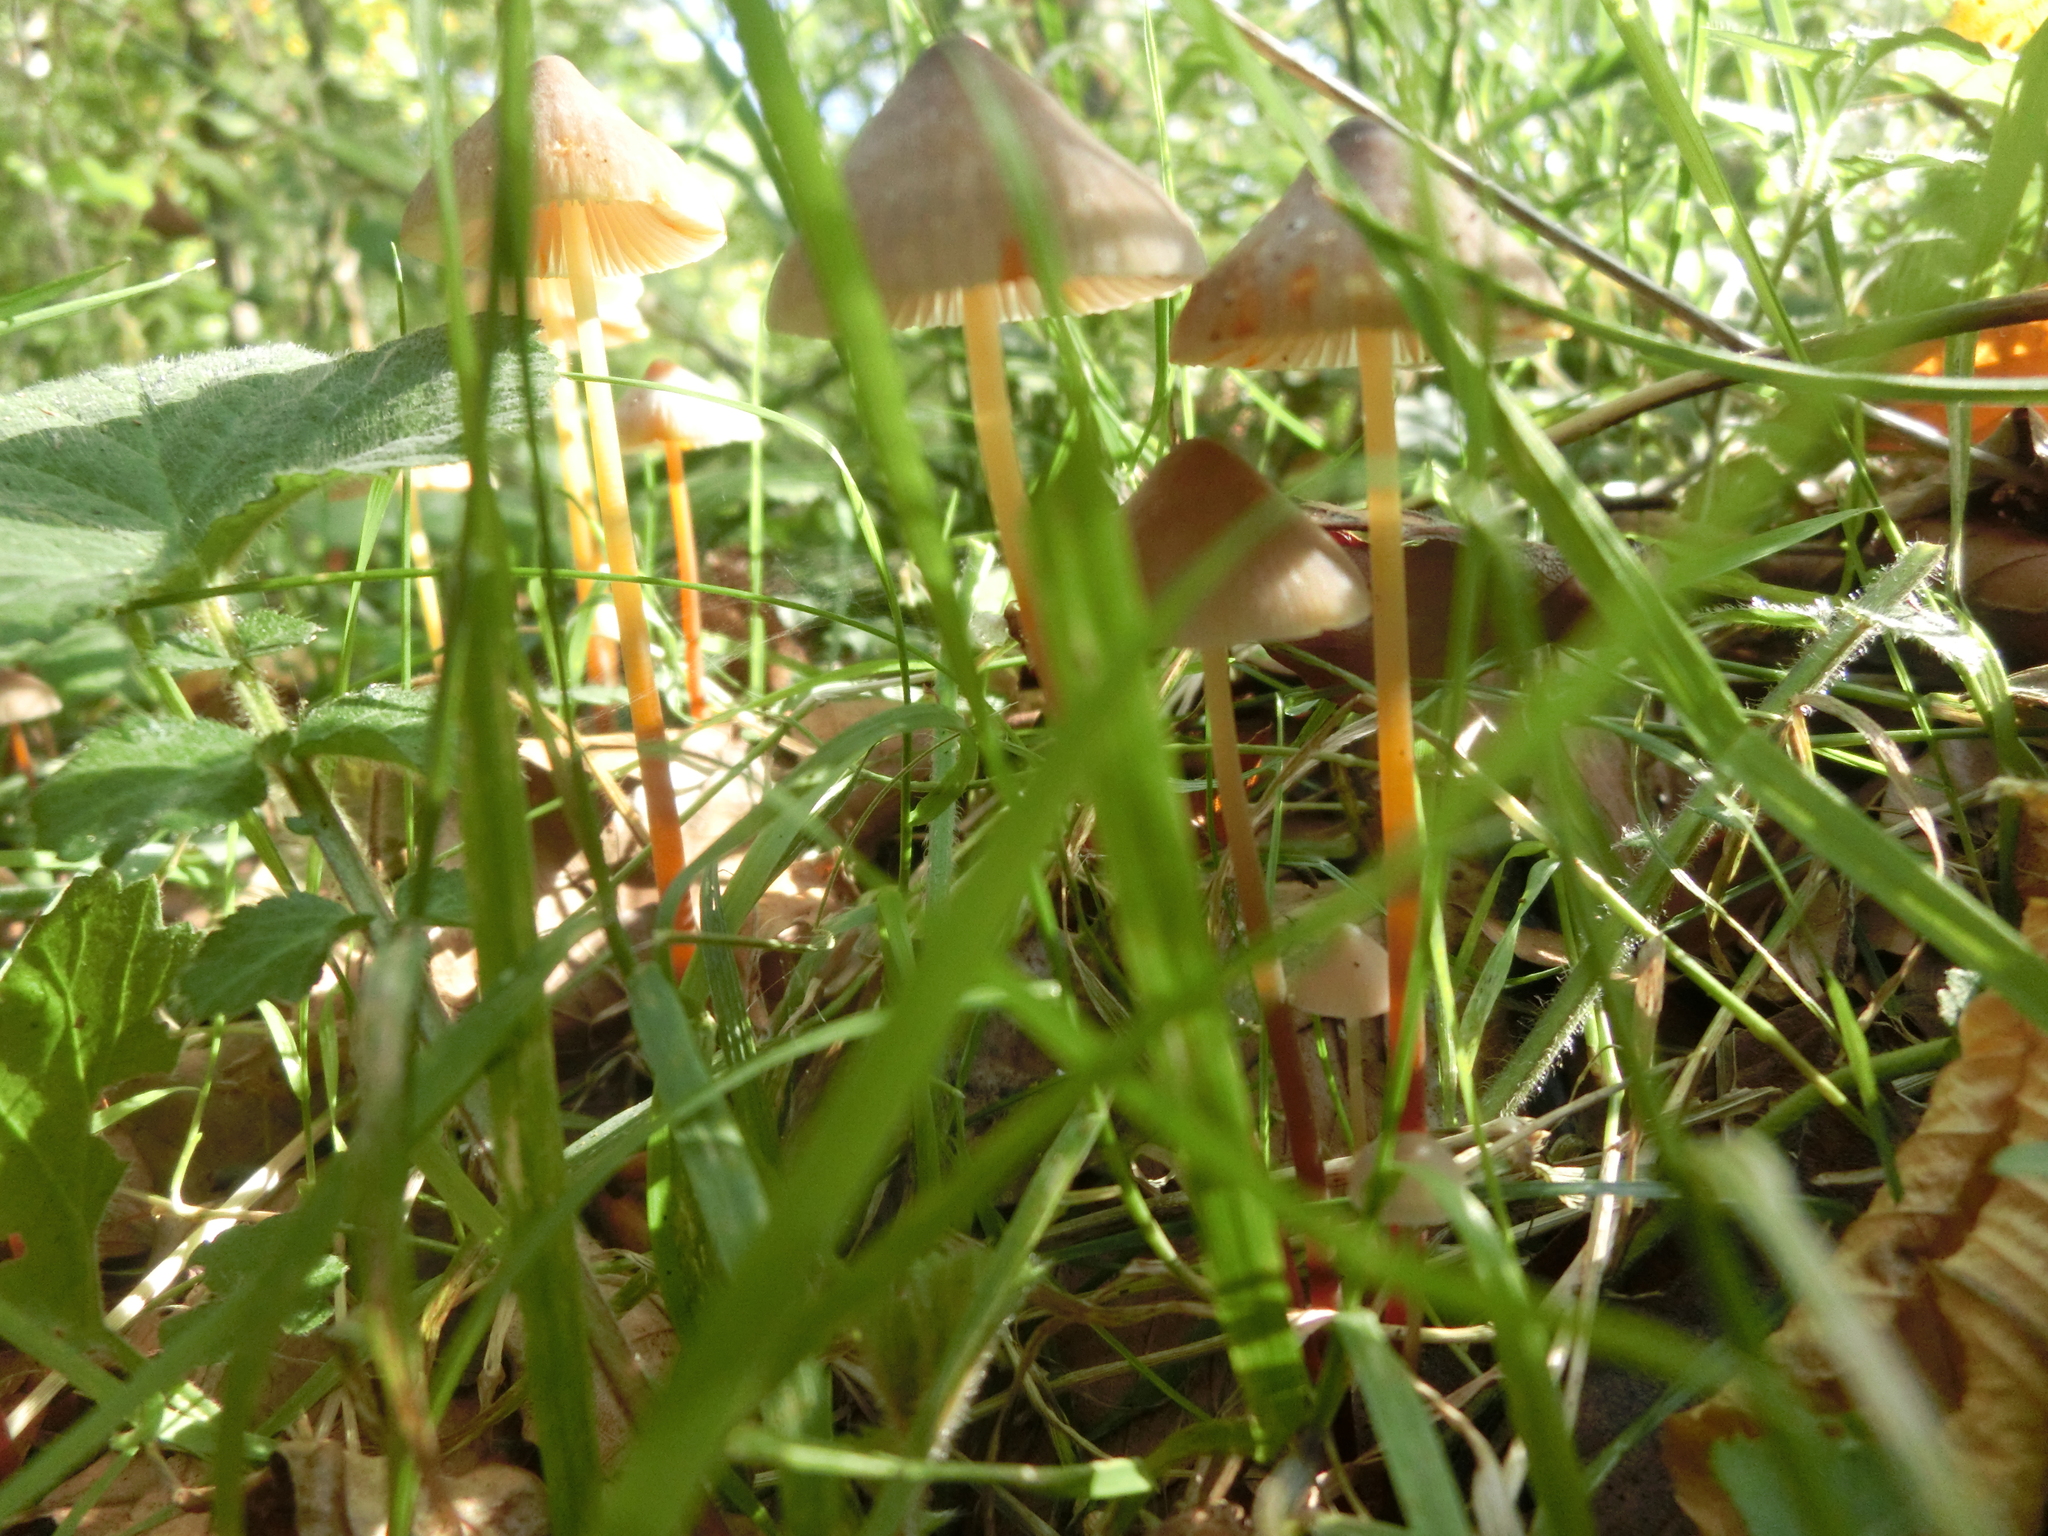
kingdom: Fungi
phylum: Basidiomycota
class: Agaricomycetes
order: Agaricales
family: Mycenaceae
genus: Mycena
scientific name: Mycena crocata
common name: Saffrondrop bonnet
